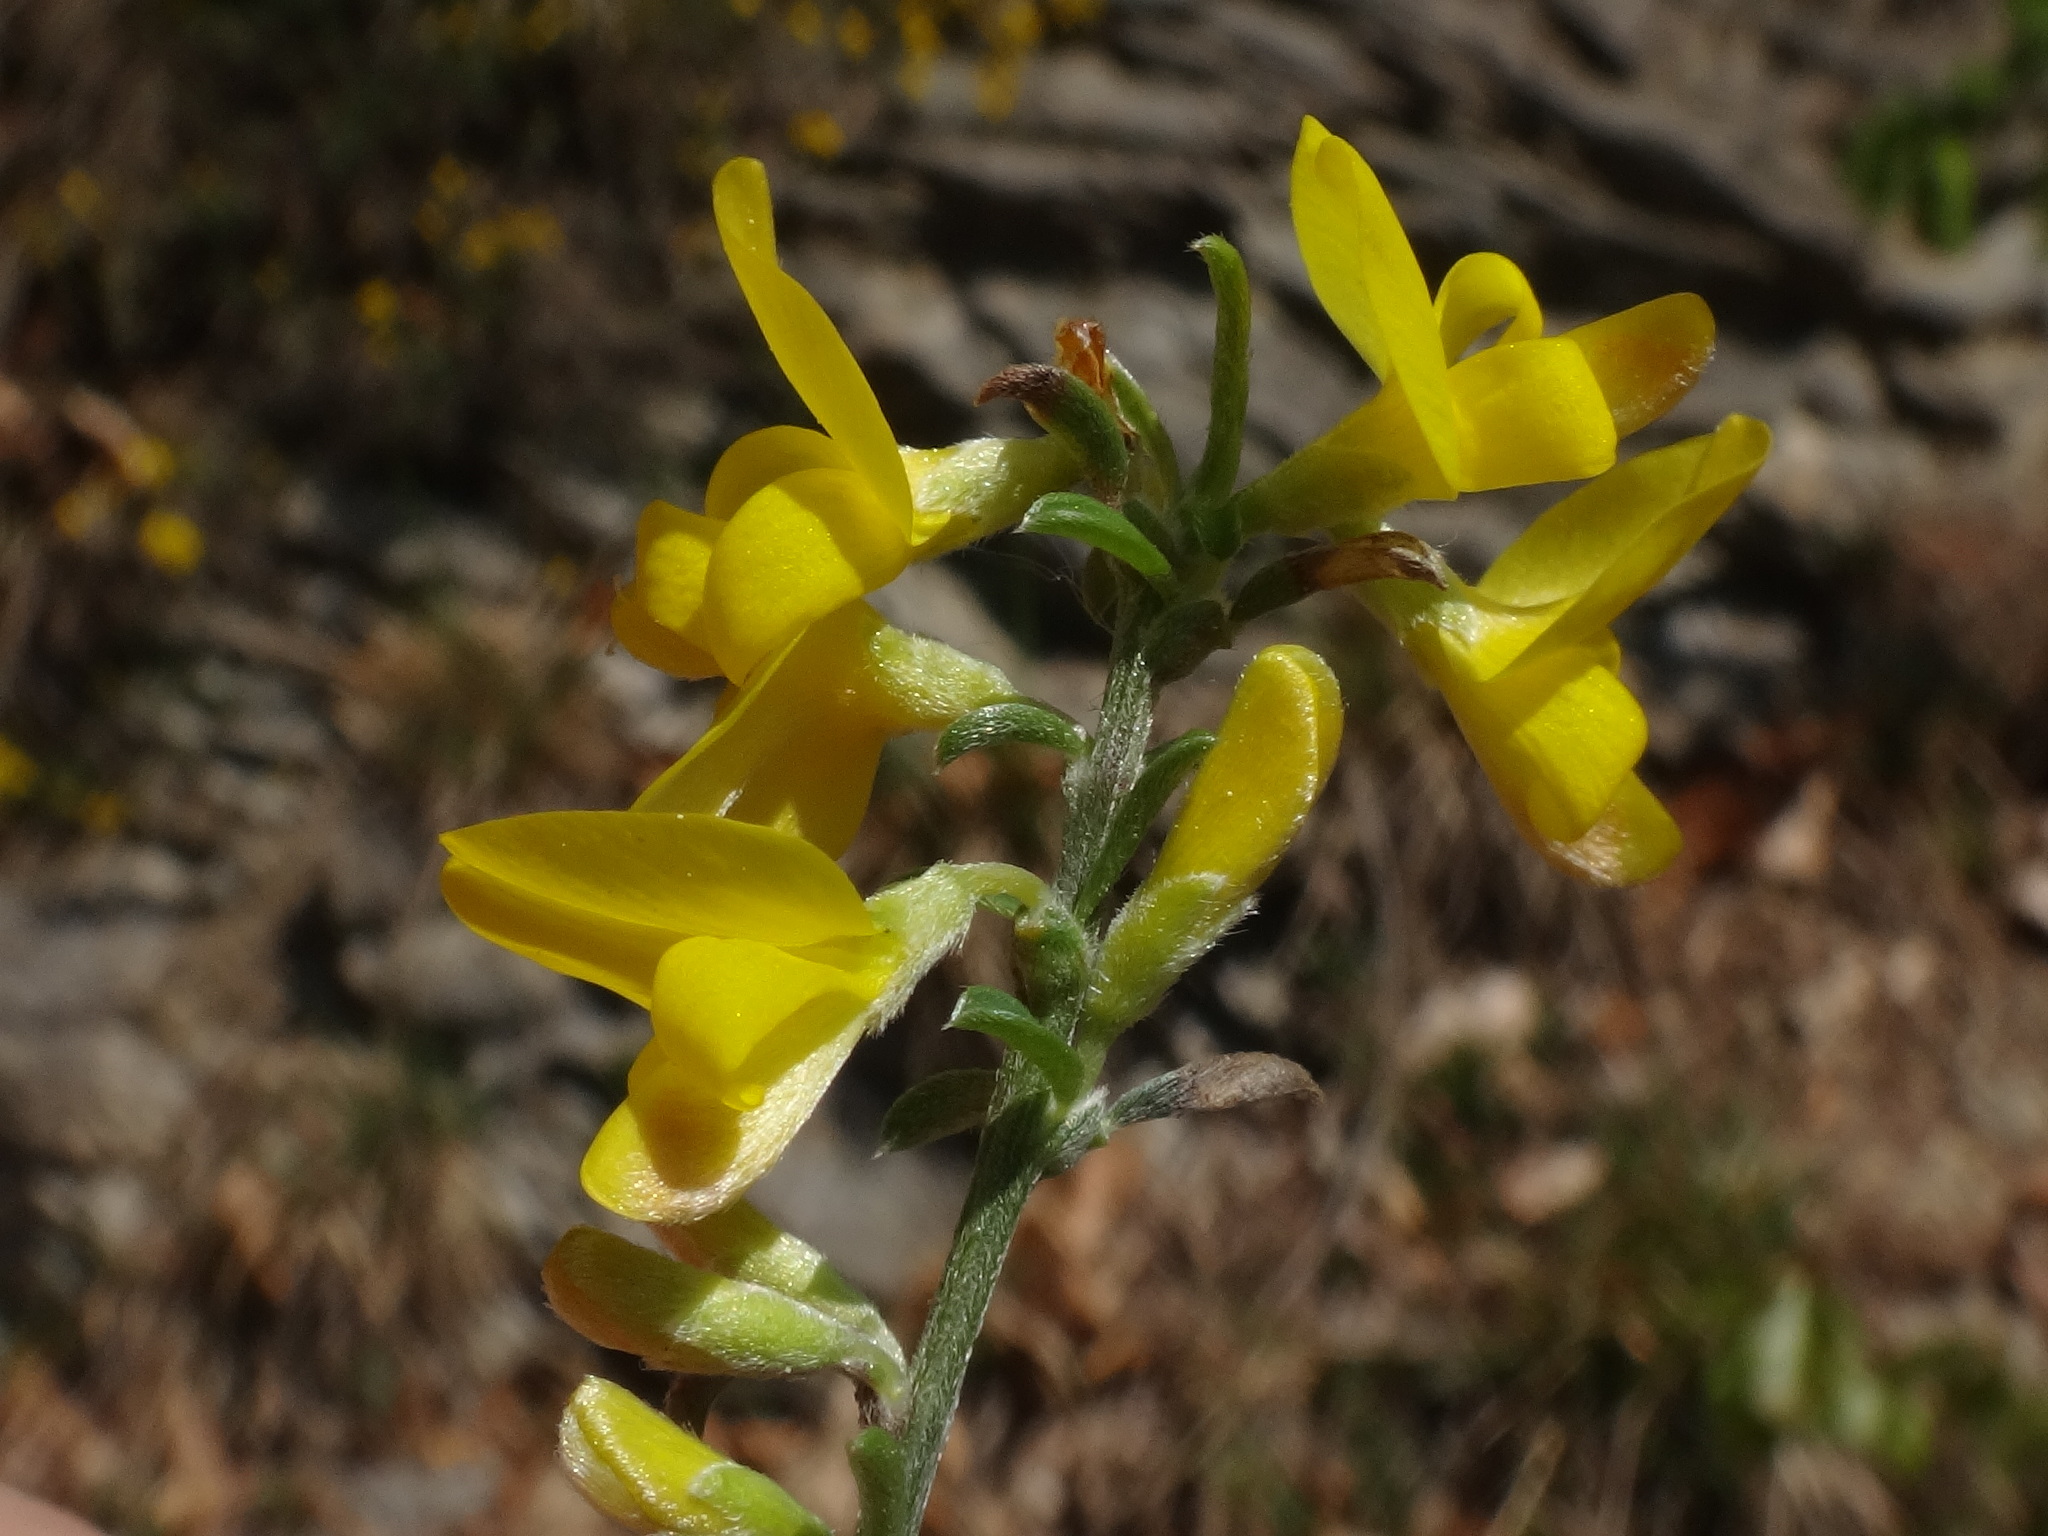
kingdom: Plantae
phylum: Tracheophyta
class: Magnoliopsida
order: Fabales
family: Fabaceae
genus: Genista
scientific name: Genista pilosa
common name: Hairy greenweed
